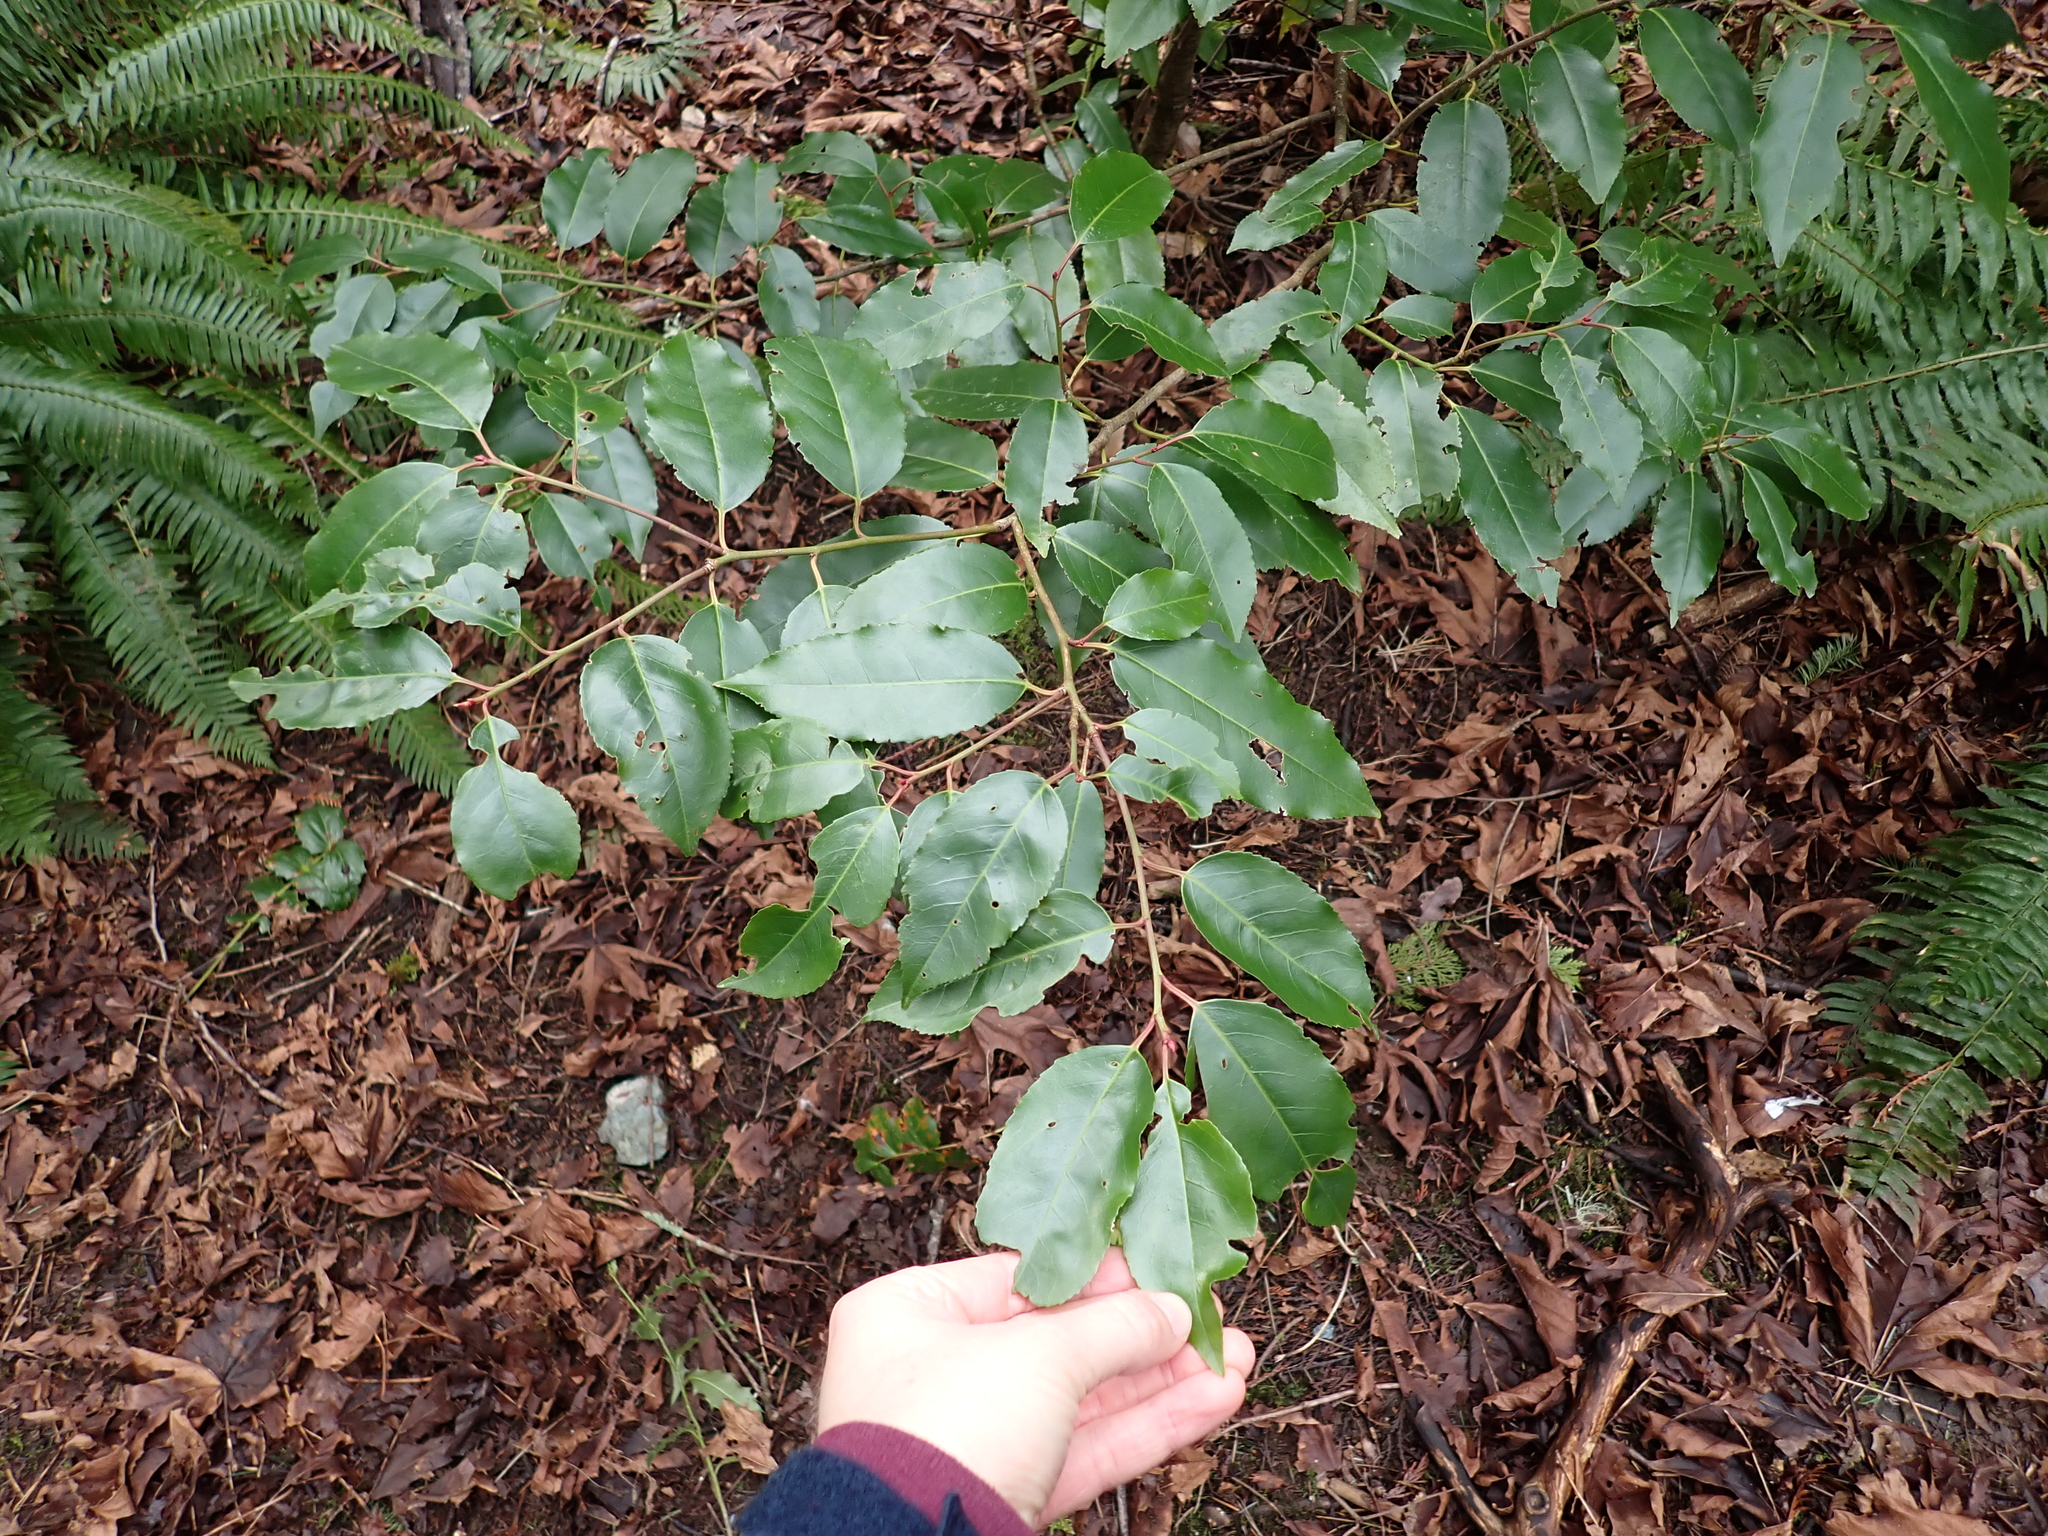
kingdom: Plantae
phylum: Tracheophyta
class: Magnoliopsida
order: Rosales
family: Rosaceae
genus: Prunus
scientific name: Prunus lusitanica
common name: Portugal laurel
